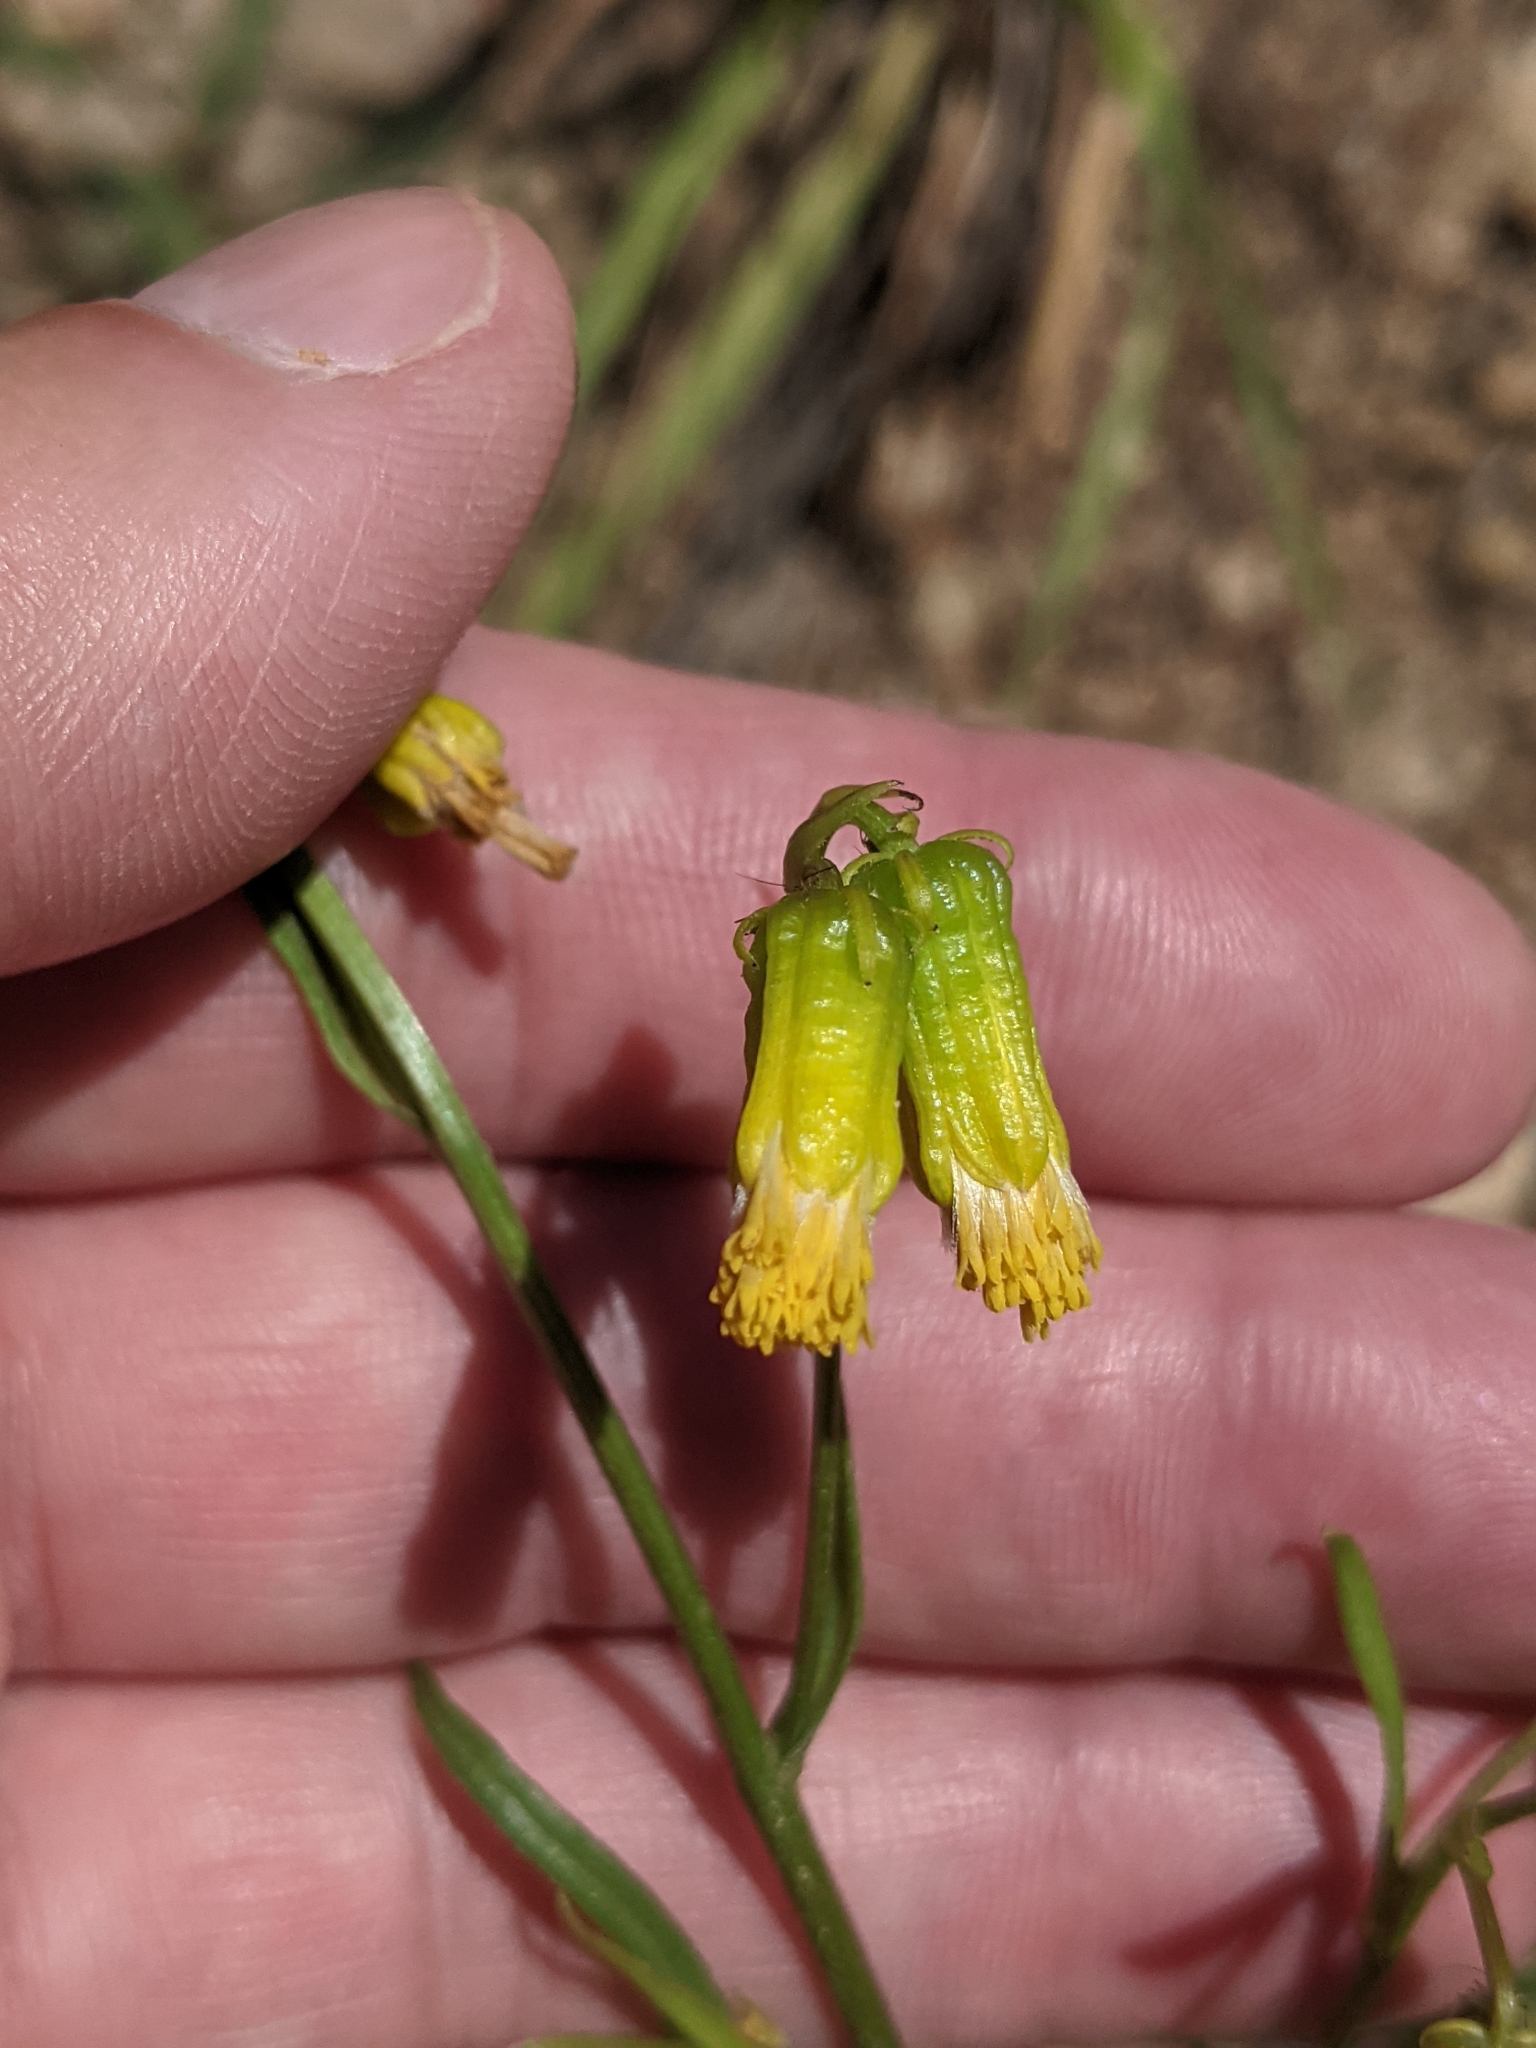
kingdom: Plantae
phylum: Tracheophyta
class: Magnoliopsida
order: Asterales
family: Asteraceae
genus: Senecio
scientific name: Senecio pudicus
